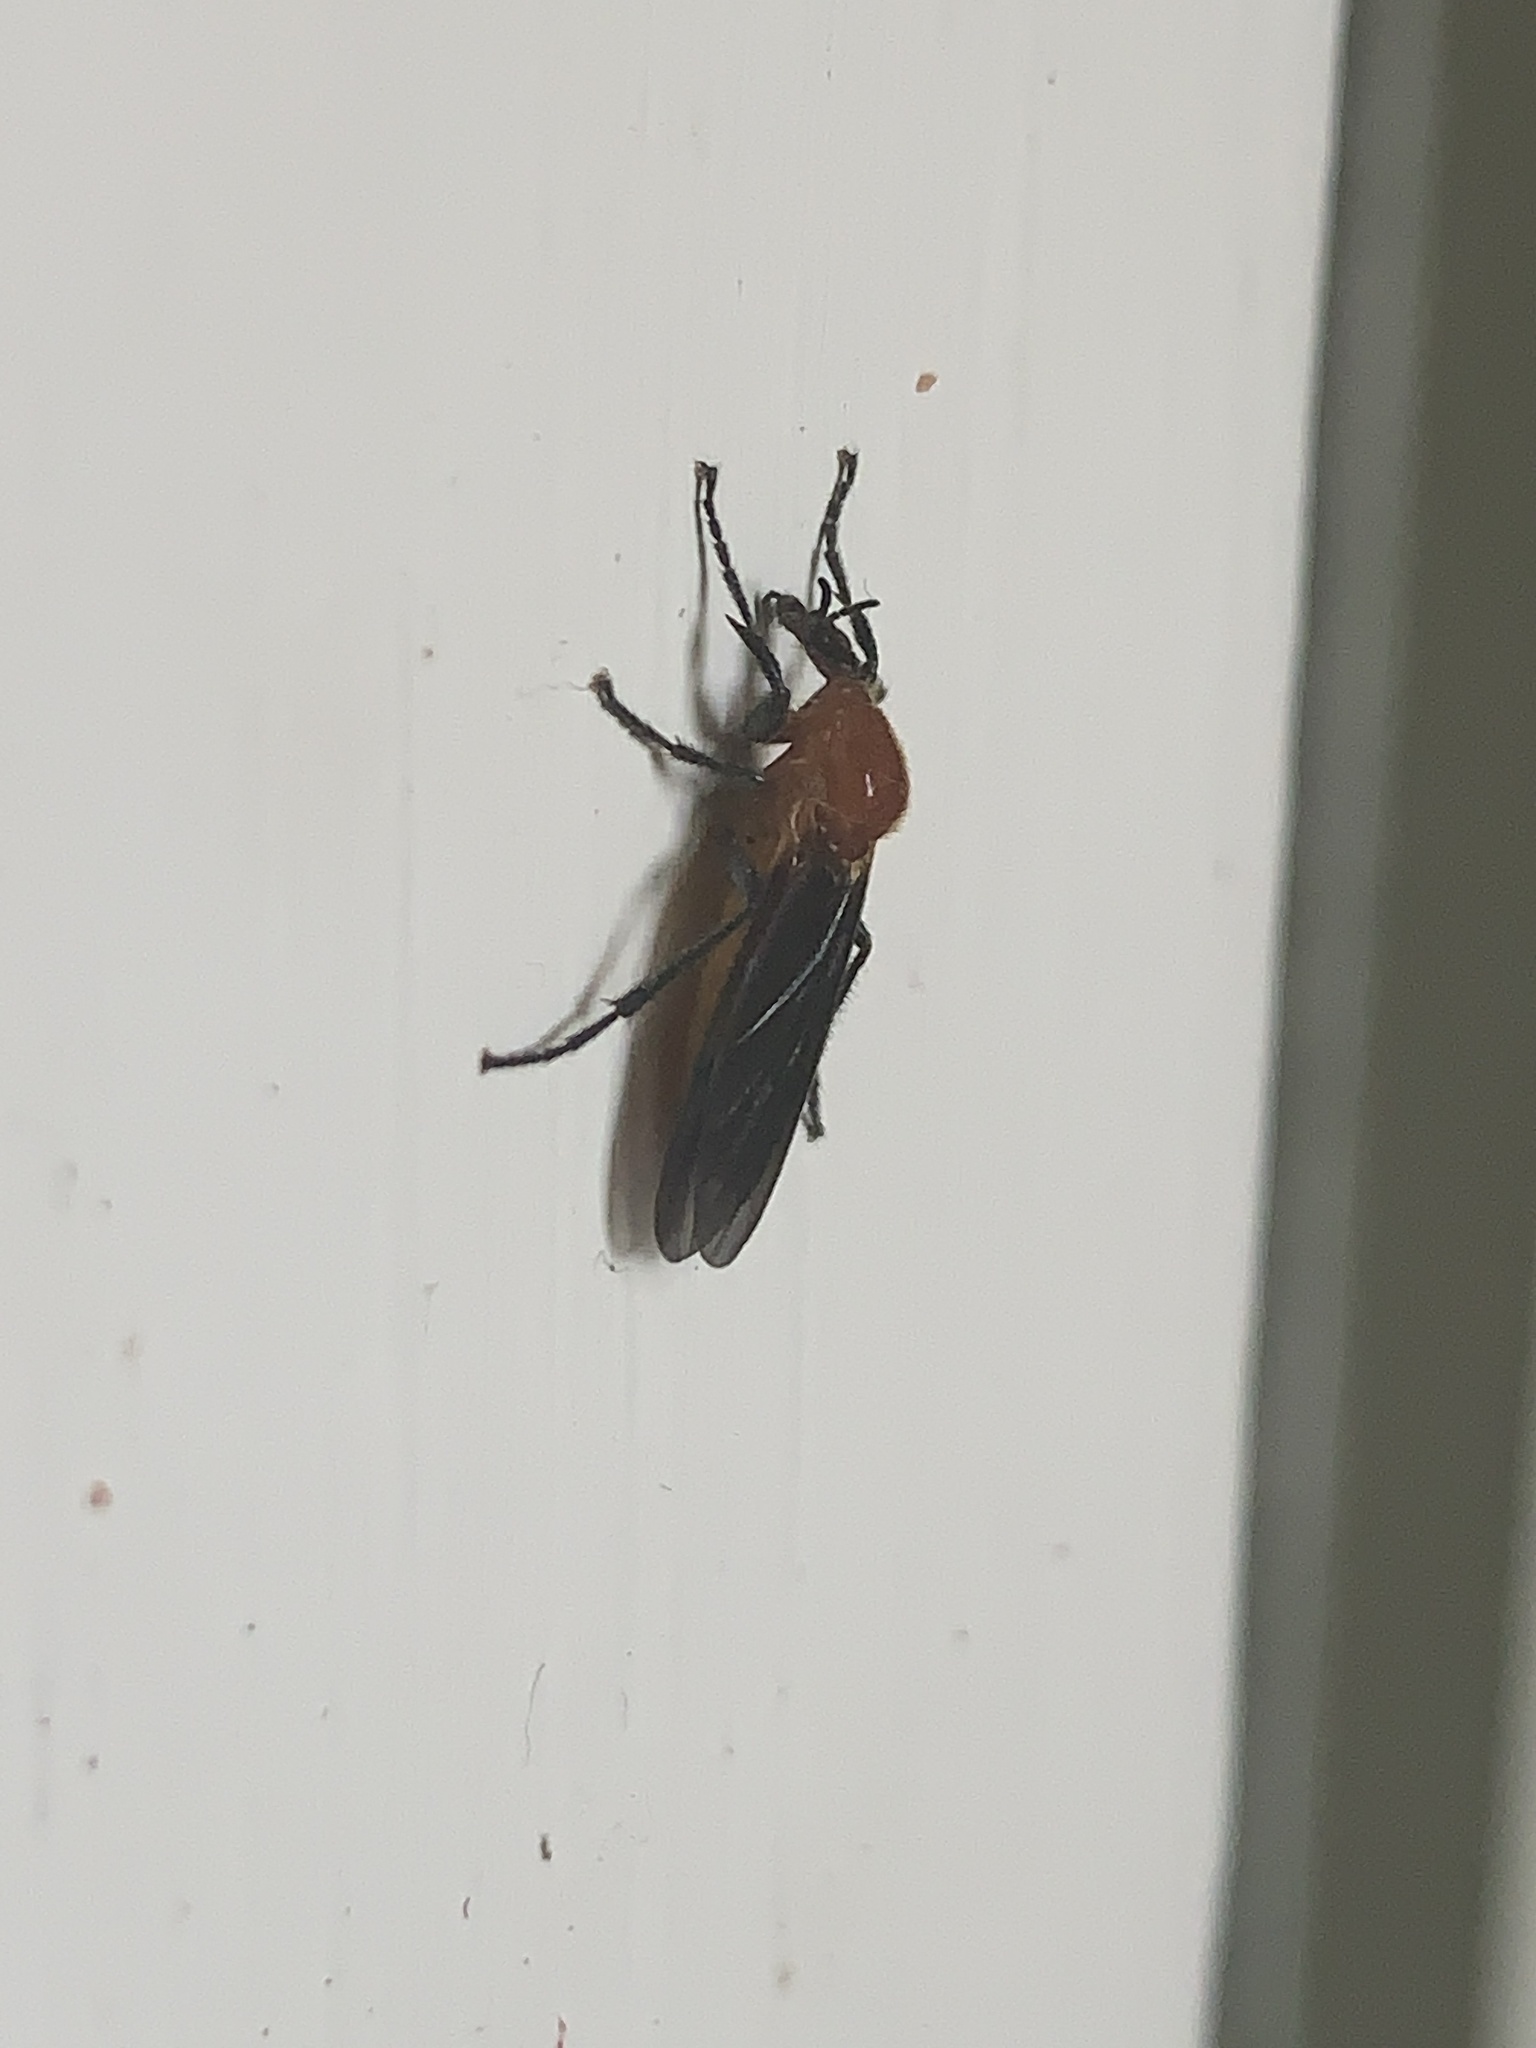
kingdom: Animalia
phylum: Arthropoda
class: Insecta
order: Diptera
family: Bibionidae
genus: Bibio
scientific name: Bibio imitator
